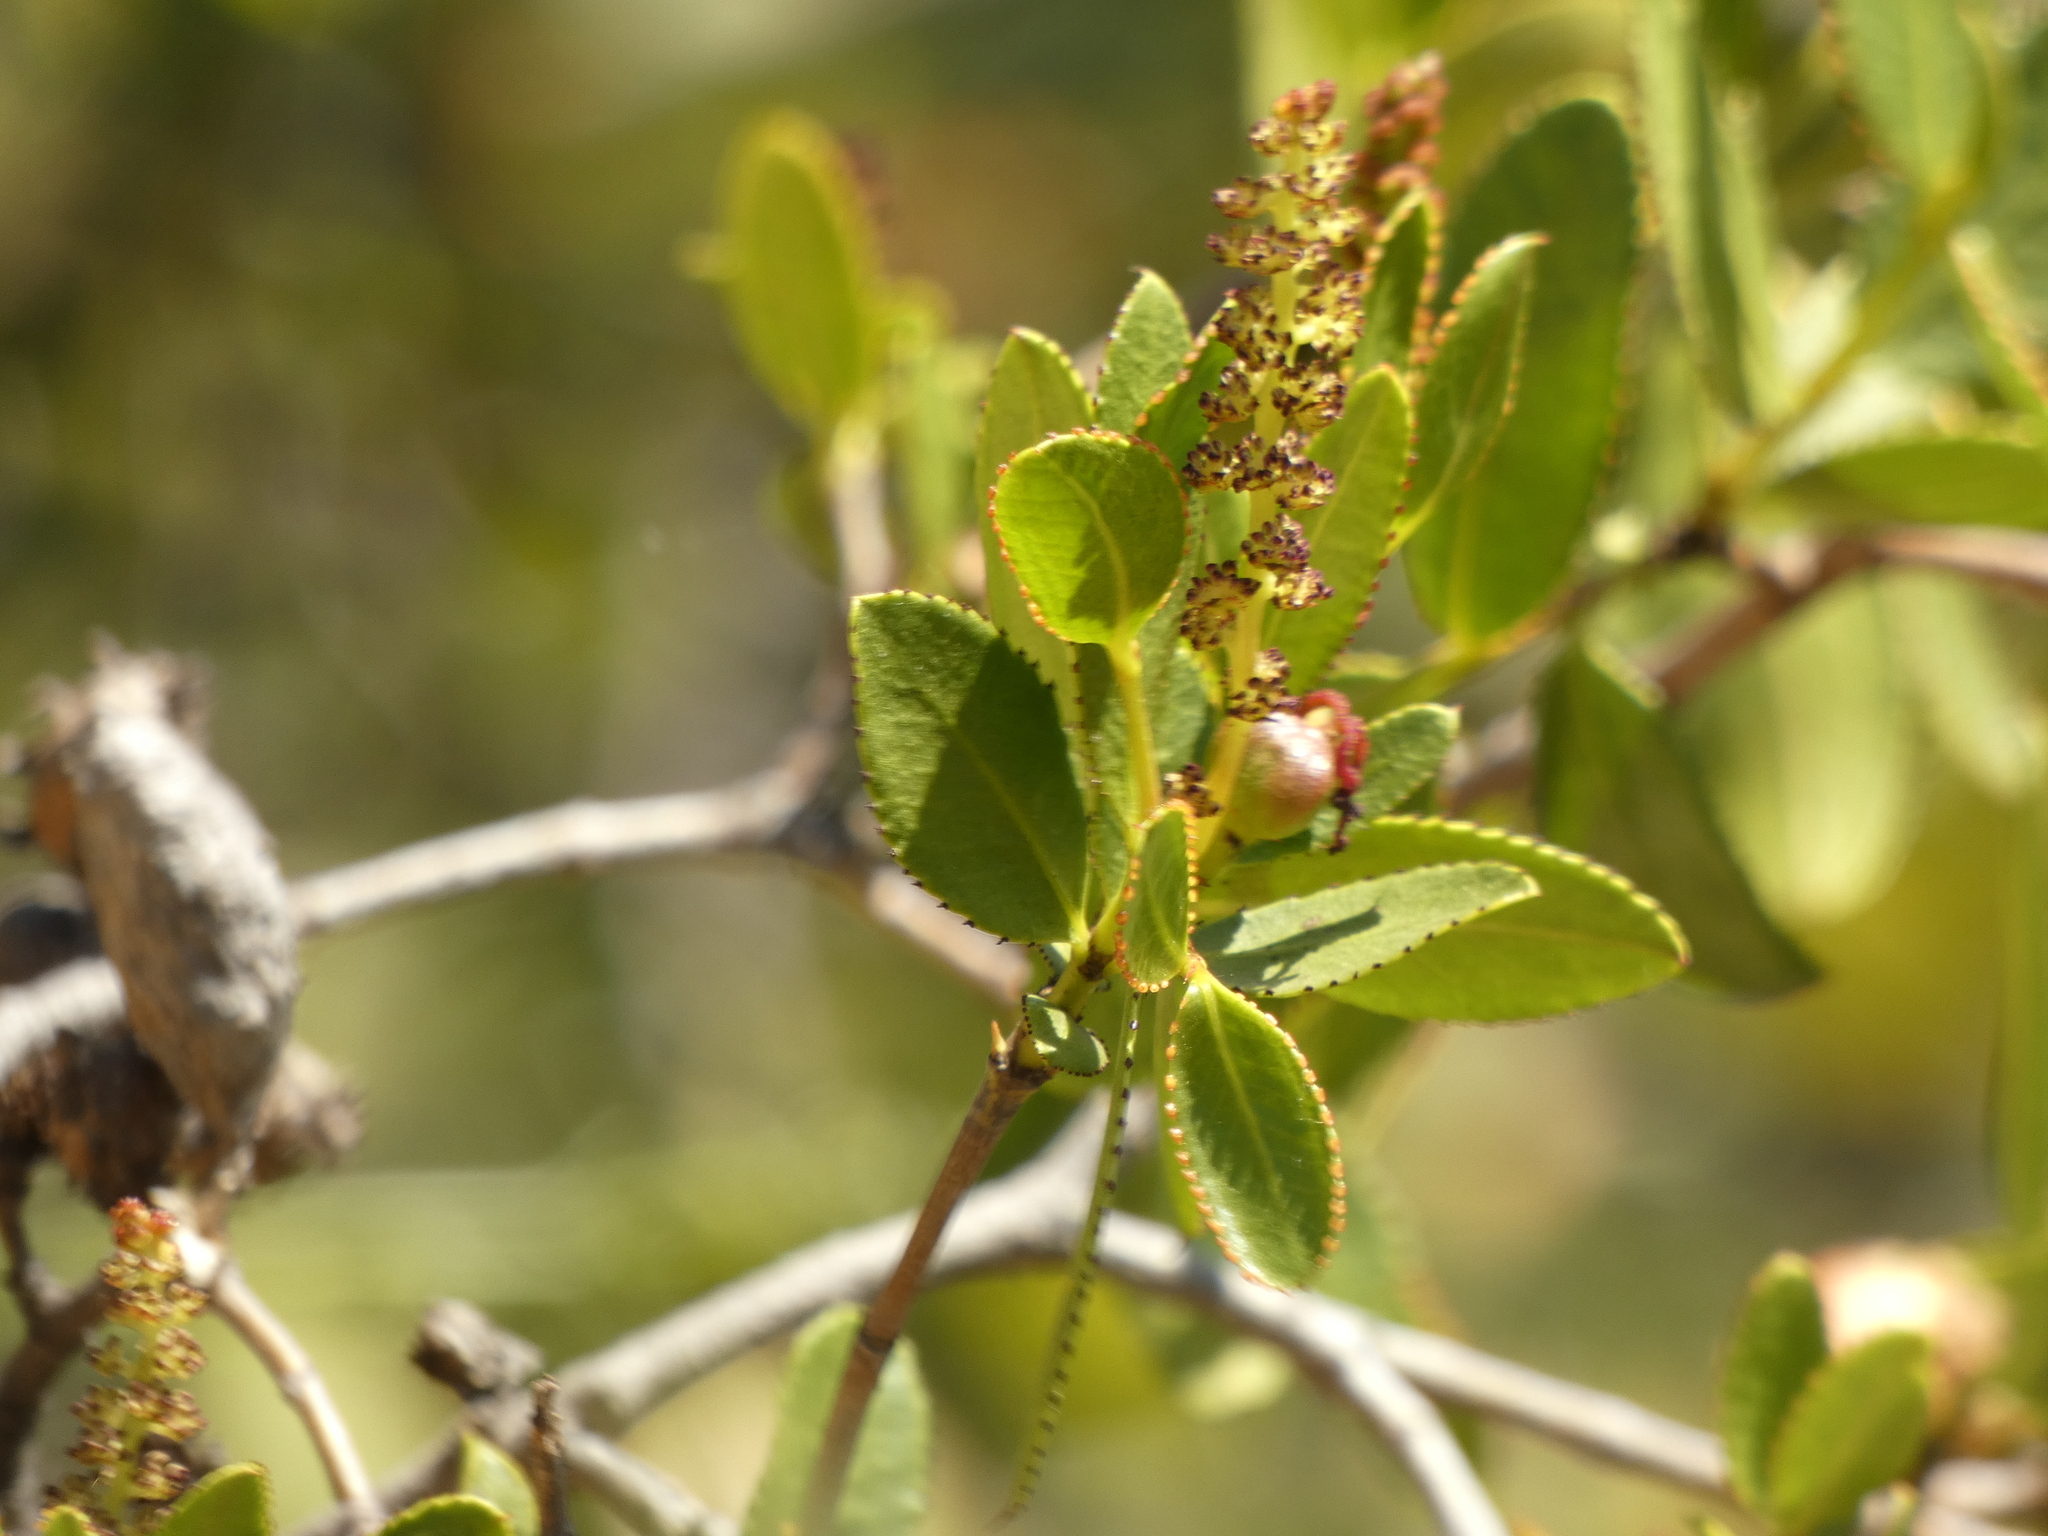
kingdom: Plantae
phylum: Tracheophyta
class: Magnoliopsida
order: Malpighiales
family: Euphorbiaceae
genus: Colliguaja
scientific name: Colliguaja odorifera
